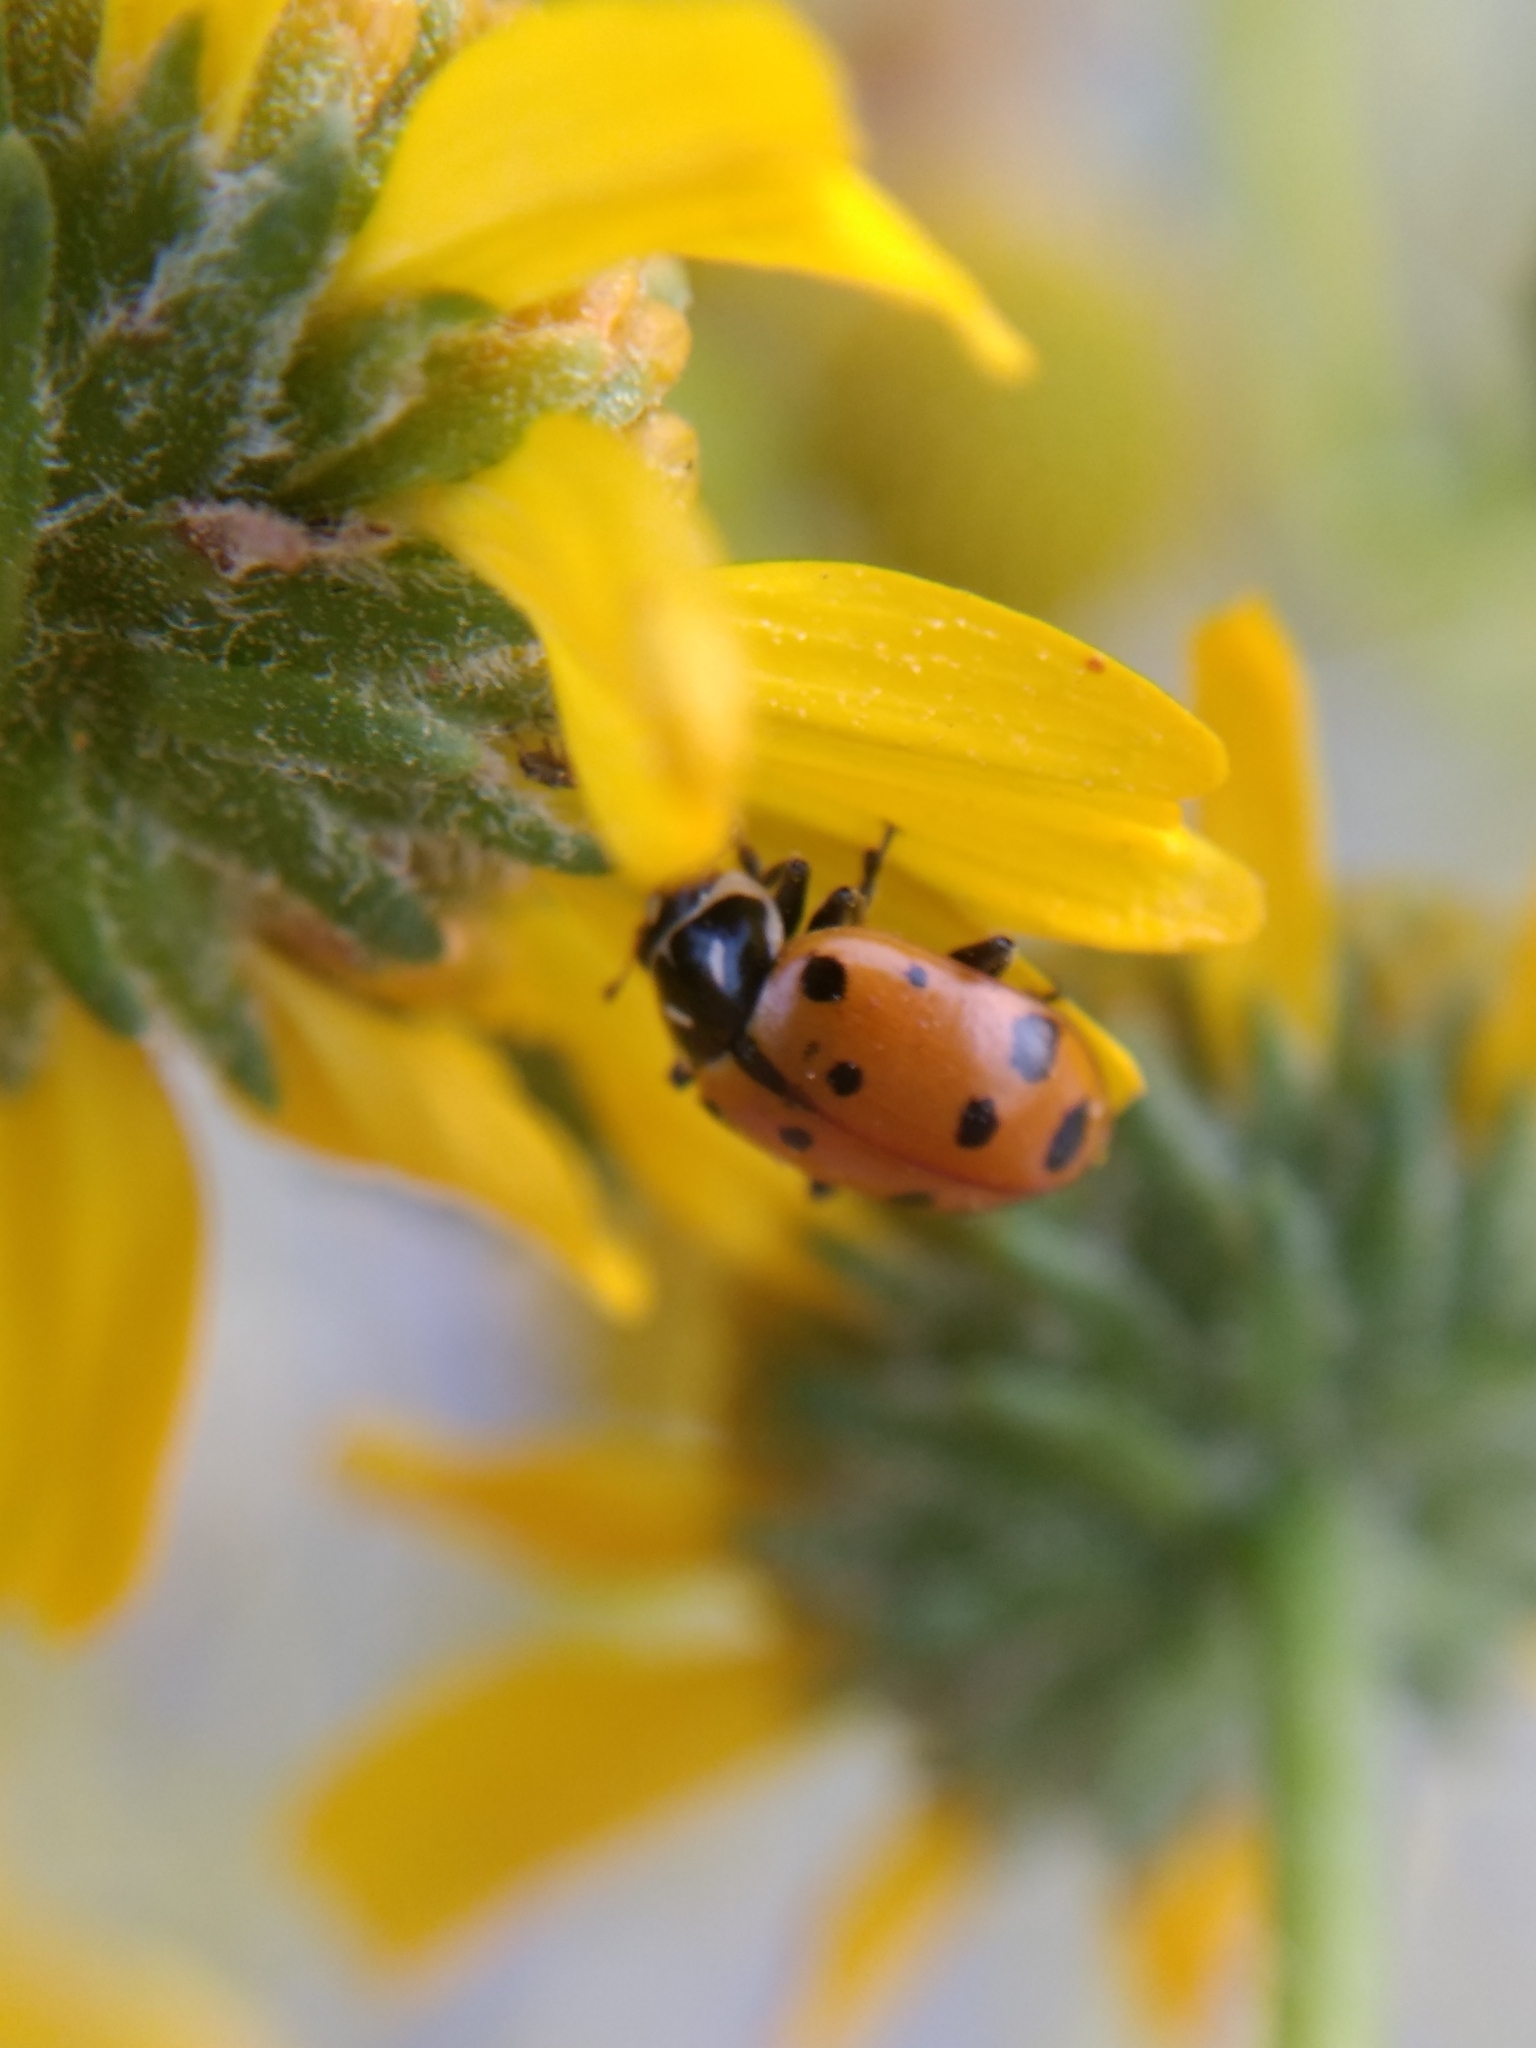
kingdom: Animalia
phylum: Arthropoda
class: Insecta
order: Coleoptera
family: Coccinellidae
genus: Hippodamia
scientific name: Hippodamia convergens
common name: Convergent lady beetle
